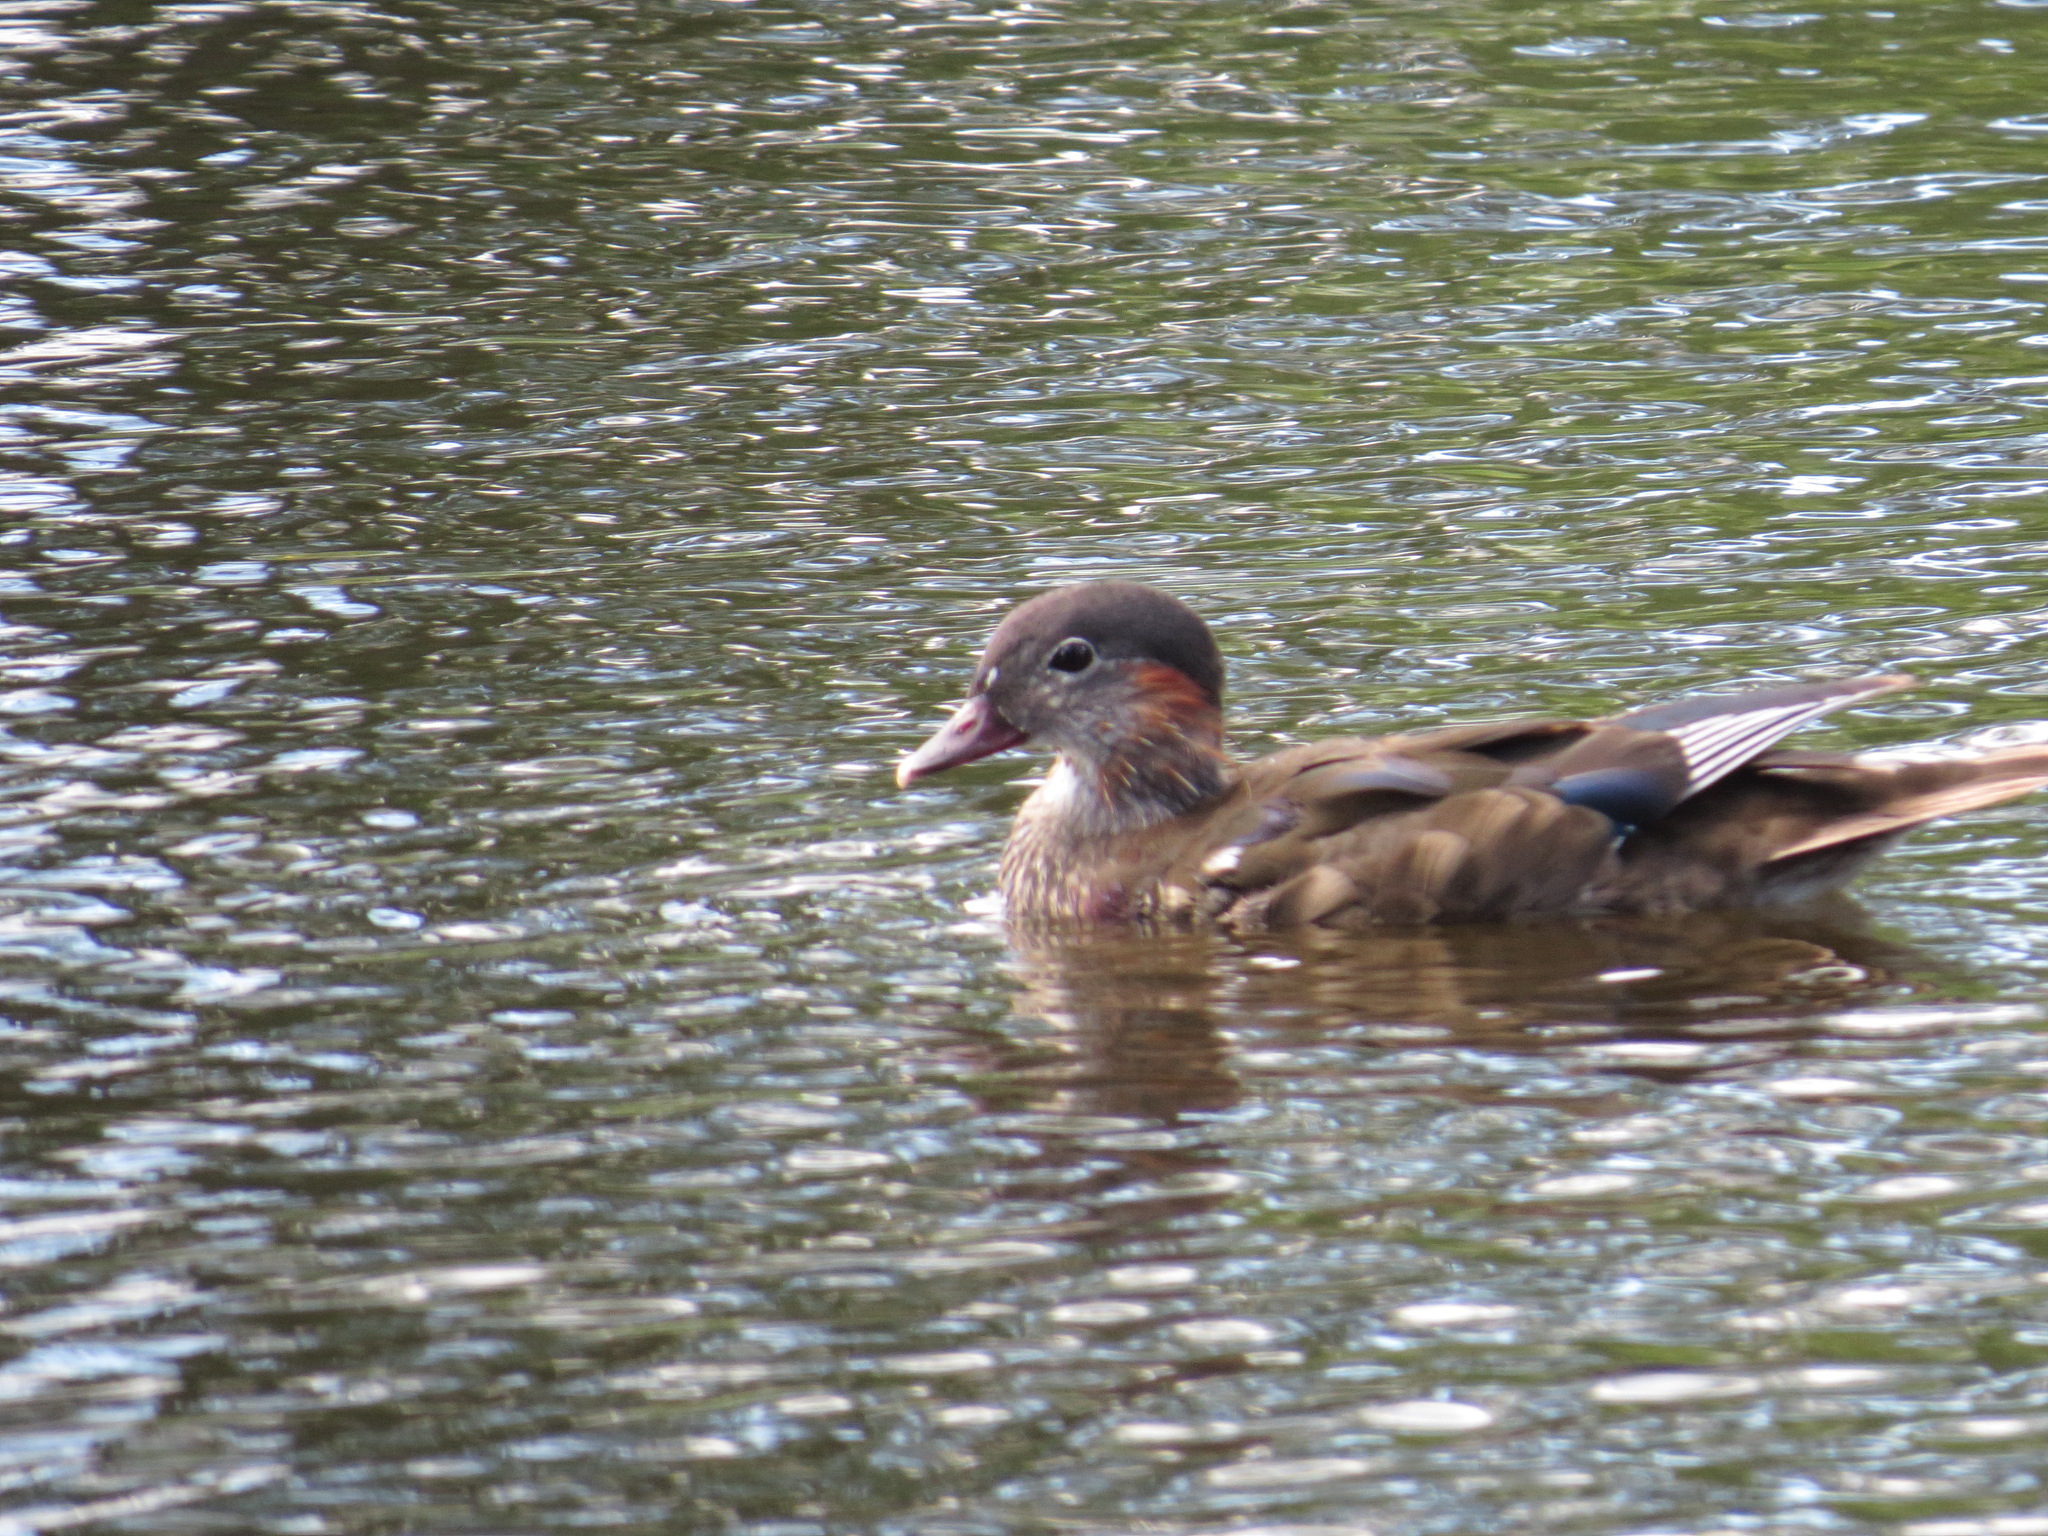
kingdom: Animalia
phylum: Chordata
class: Aves
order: Anseriformes
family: Anatidae
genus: Aix
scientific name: Aix galericulata
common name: Mandarin duck
